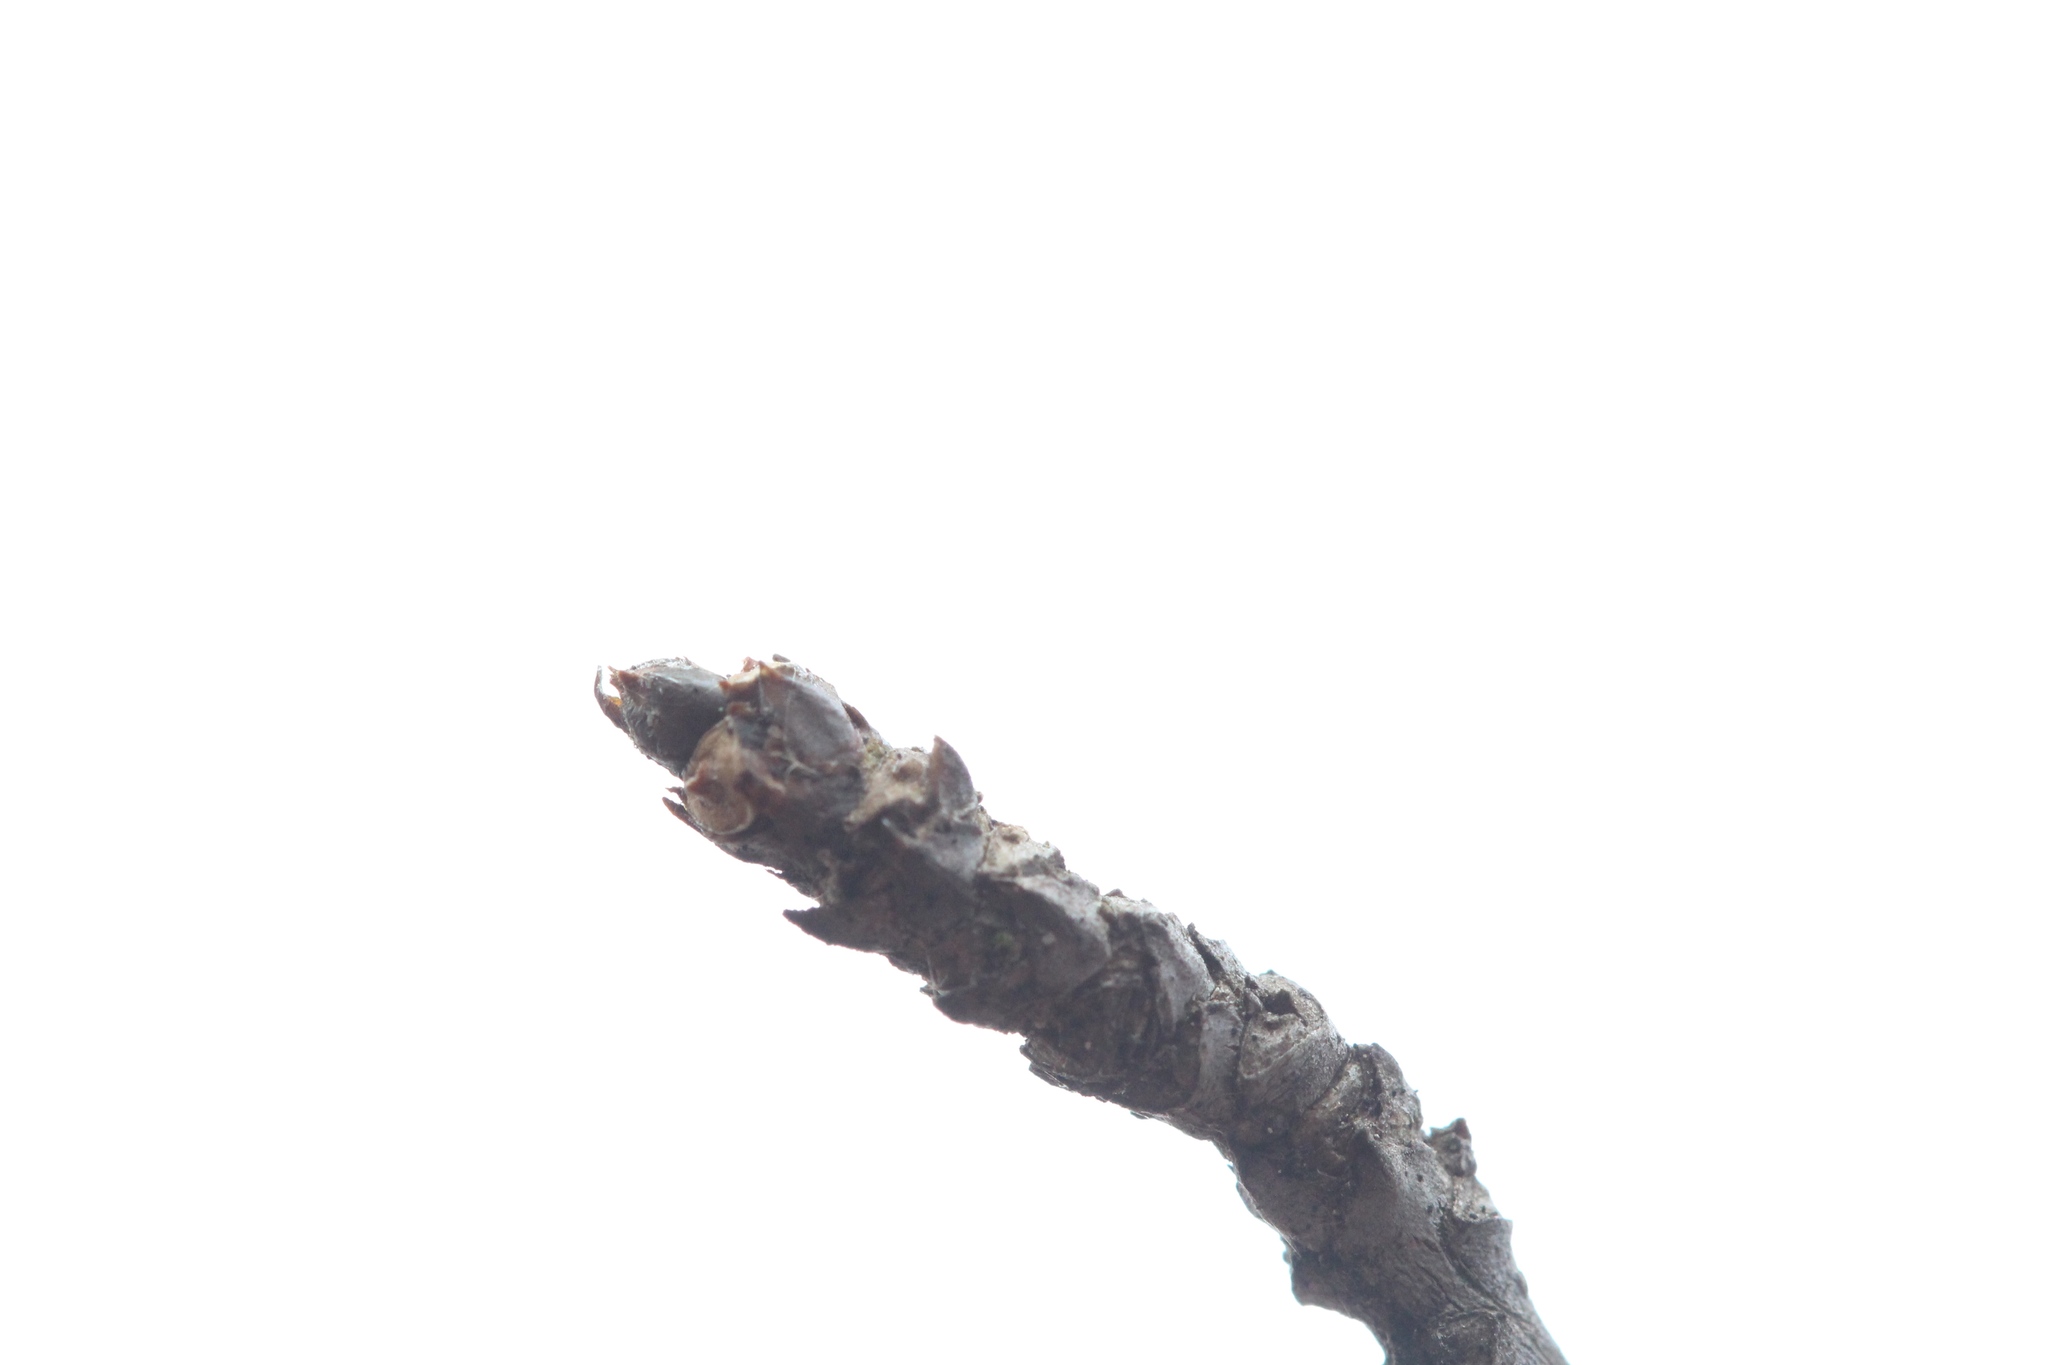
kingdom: Plantae
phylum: Tracheophyta
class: Magnoliopsida
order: Aquifoliales
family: Aquifoliaceae
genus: Ilex
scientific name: Ilex montana
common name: Mountain winterberry
